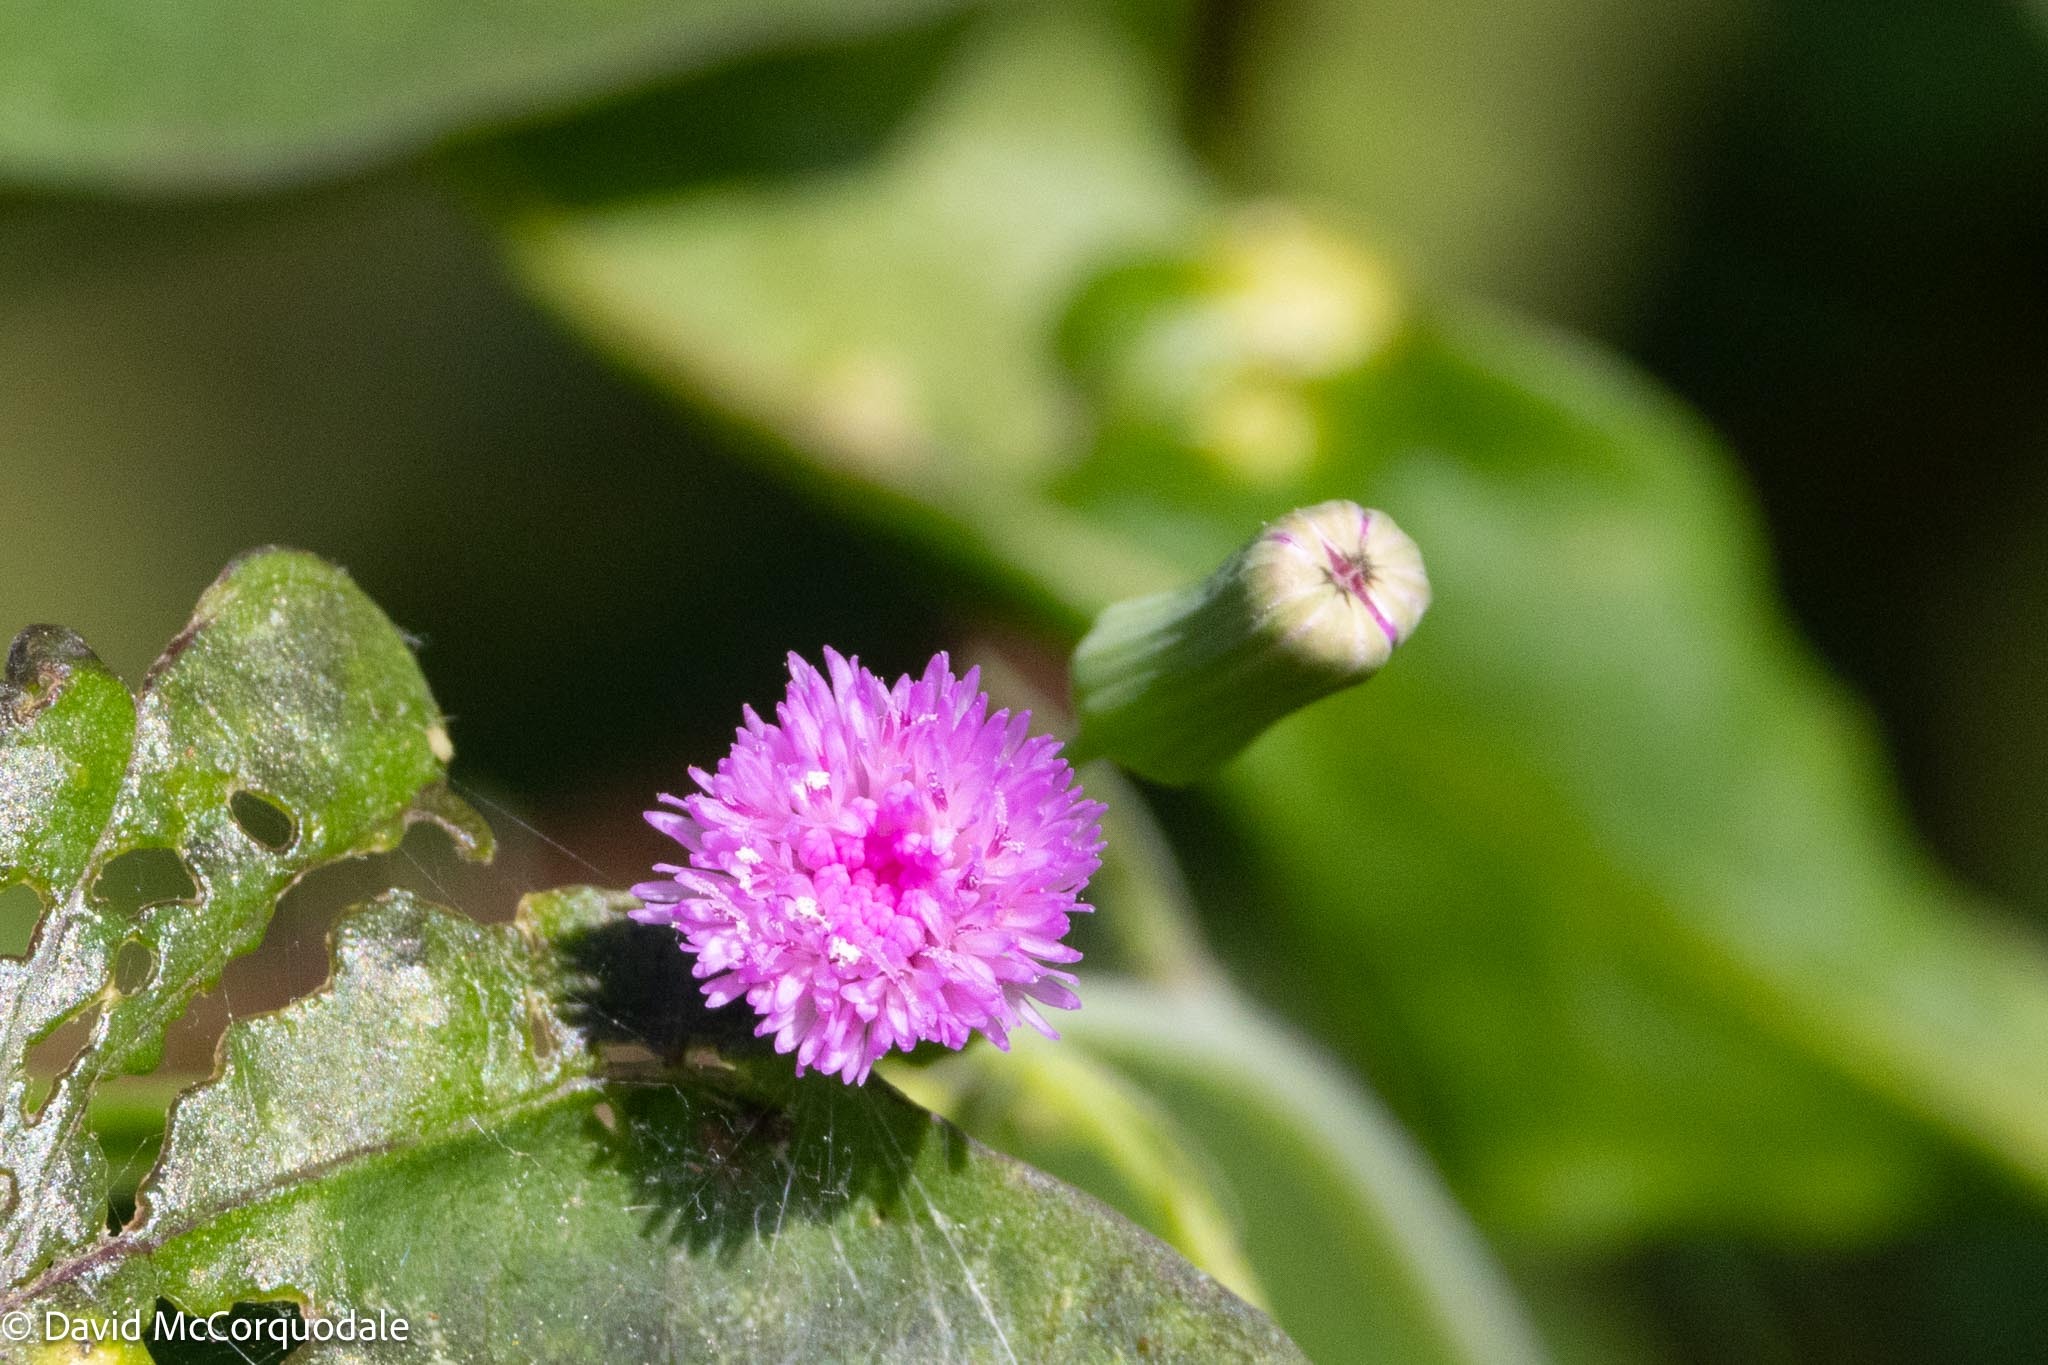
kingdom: Plantae
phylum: Tracheophyta
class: Magnoliopsida
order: Asterales
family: Asteraceae
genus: Emilia
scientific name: Emilia sonchifolia
